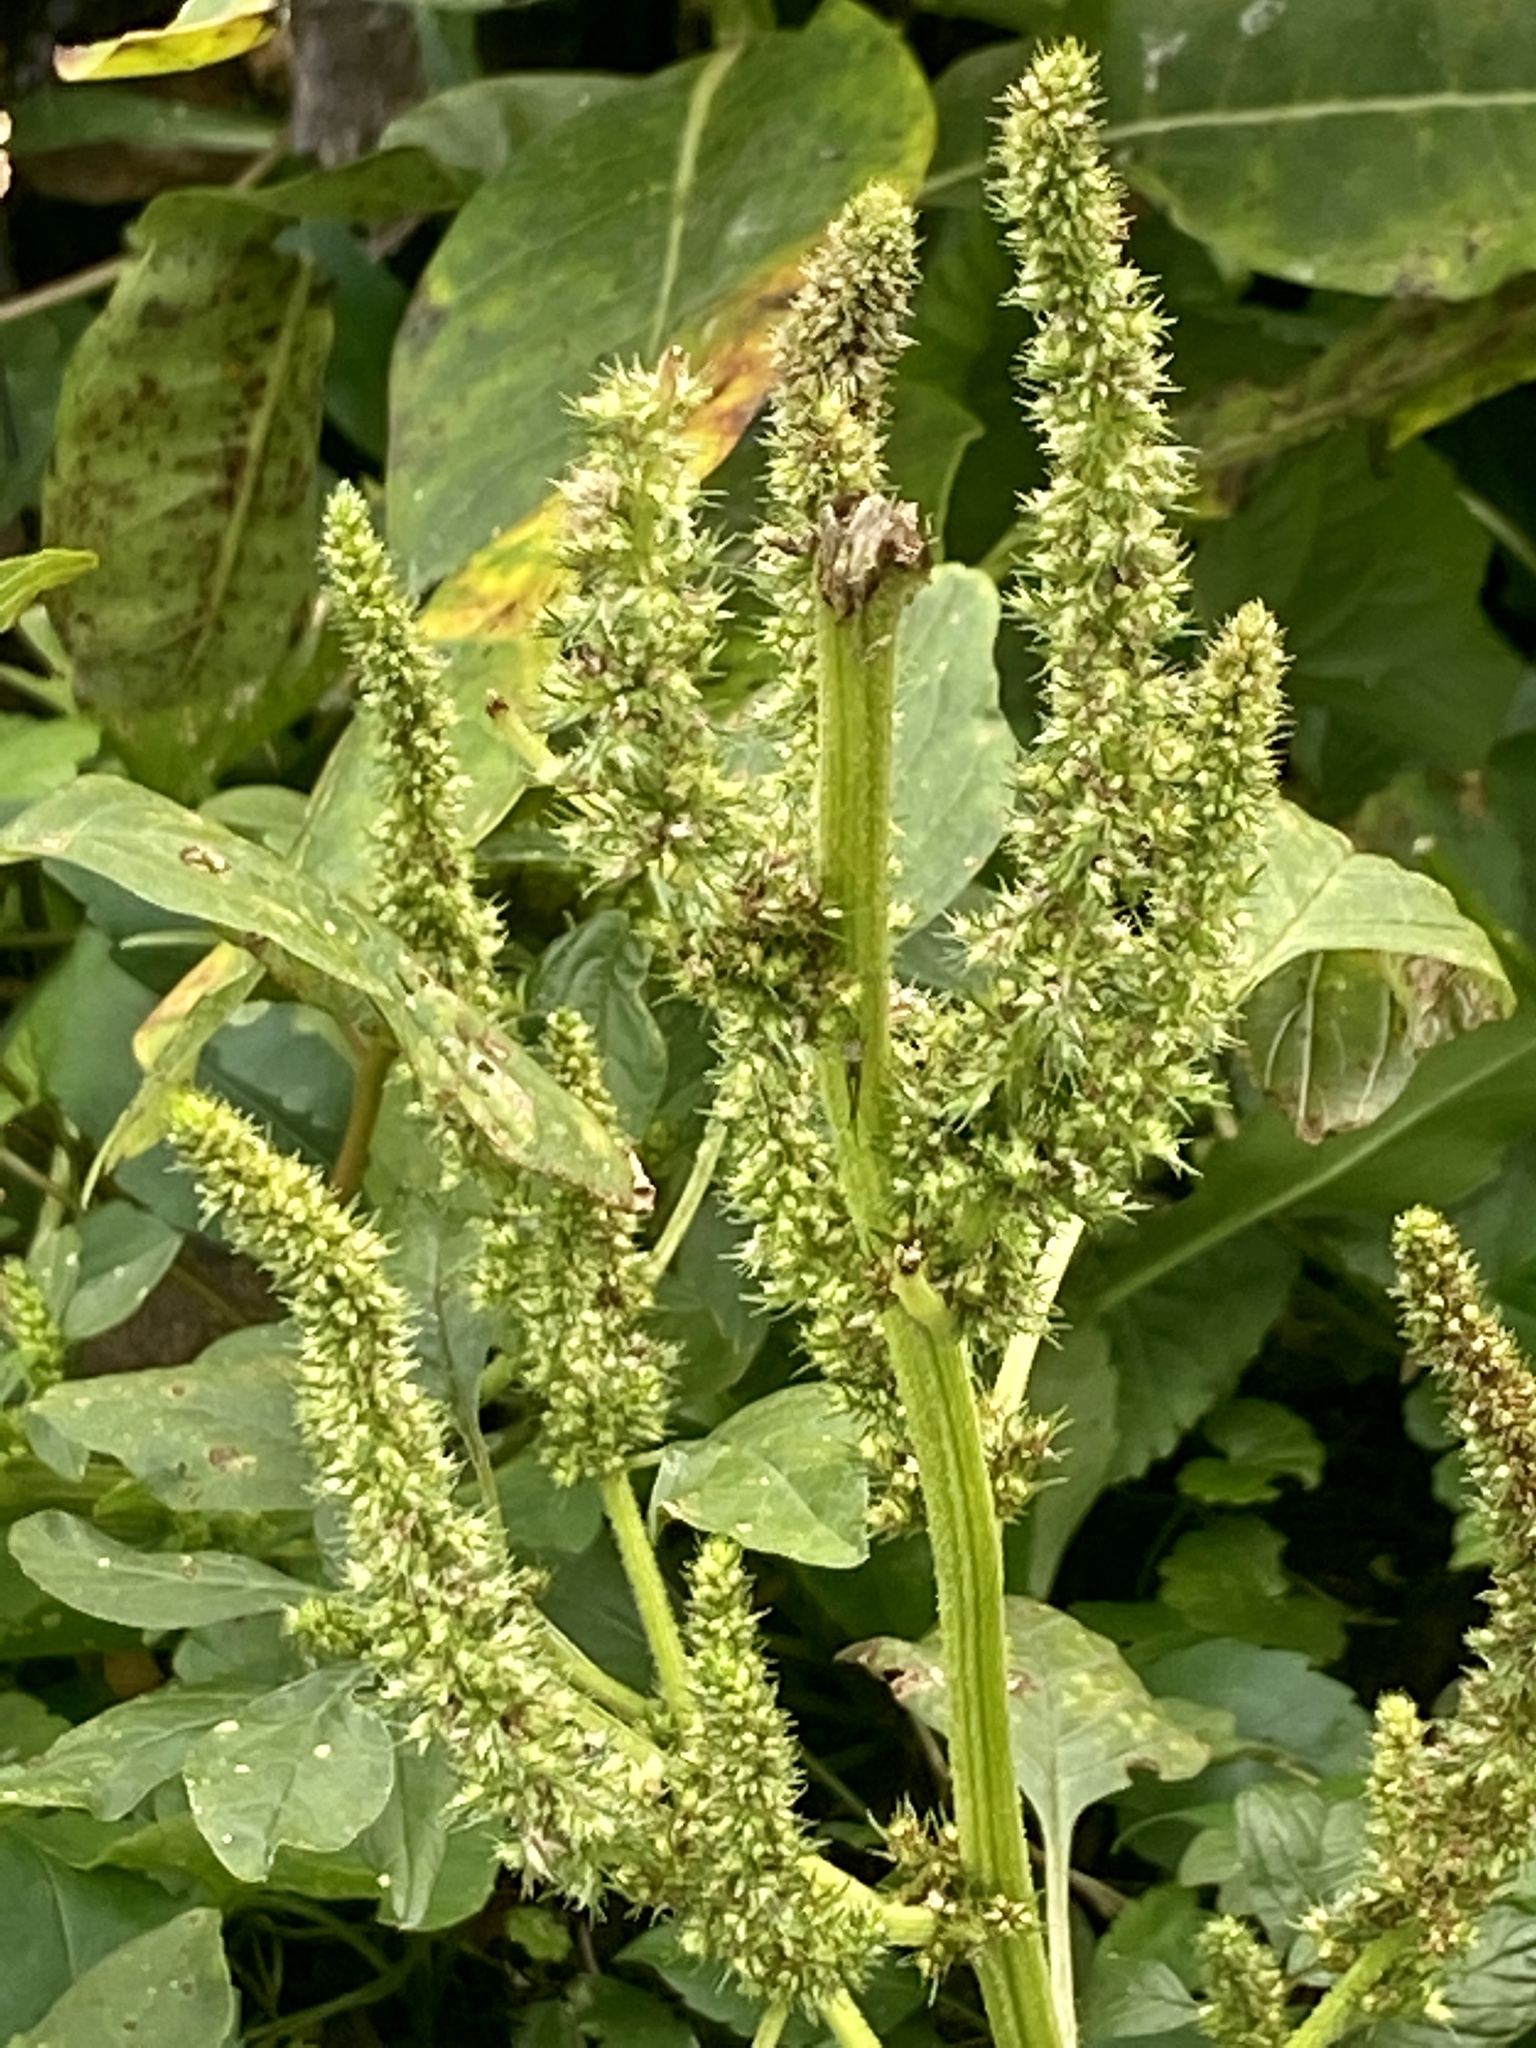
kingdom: Plantae
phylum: Tracheophyta
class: Magnoliopsida
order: Caryophyllales
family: Amaranthaceae
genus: Amaranthus
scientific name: Amaranthus retroflexus
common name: Redroot amaranth
